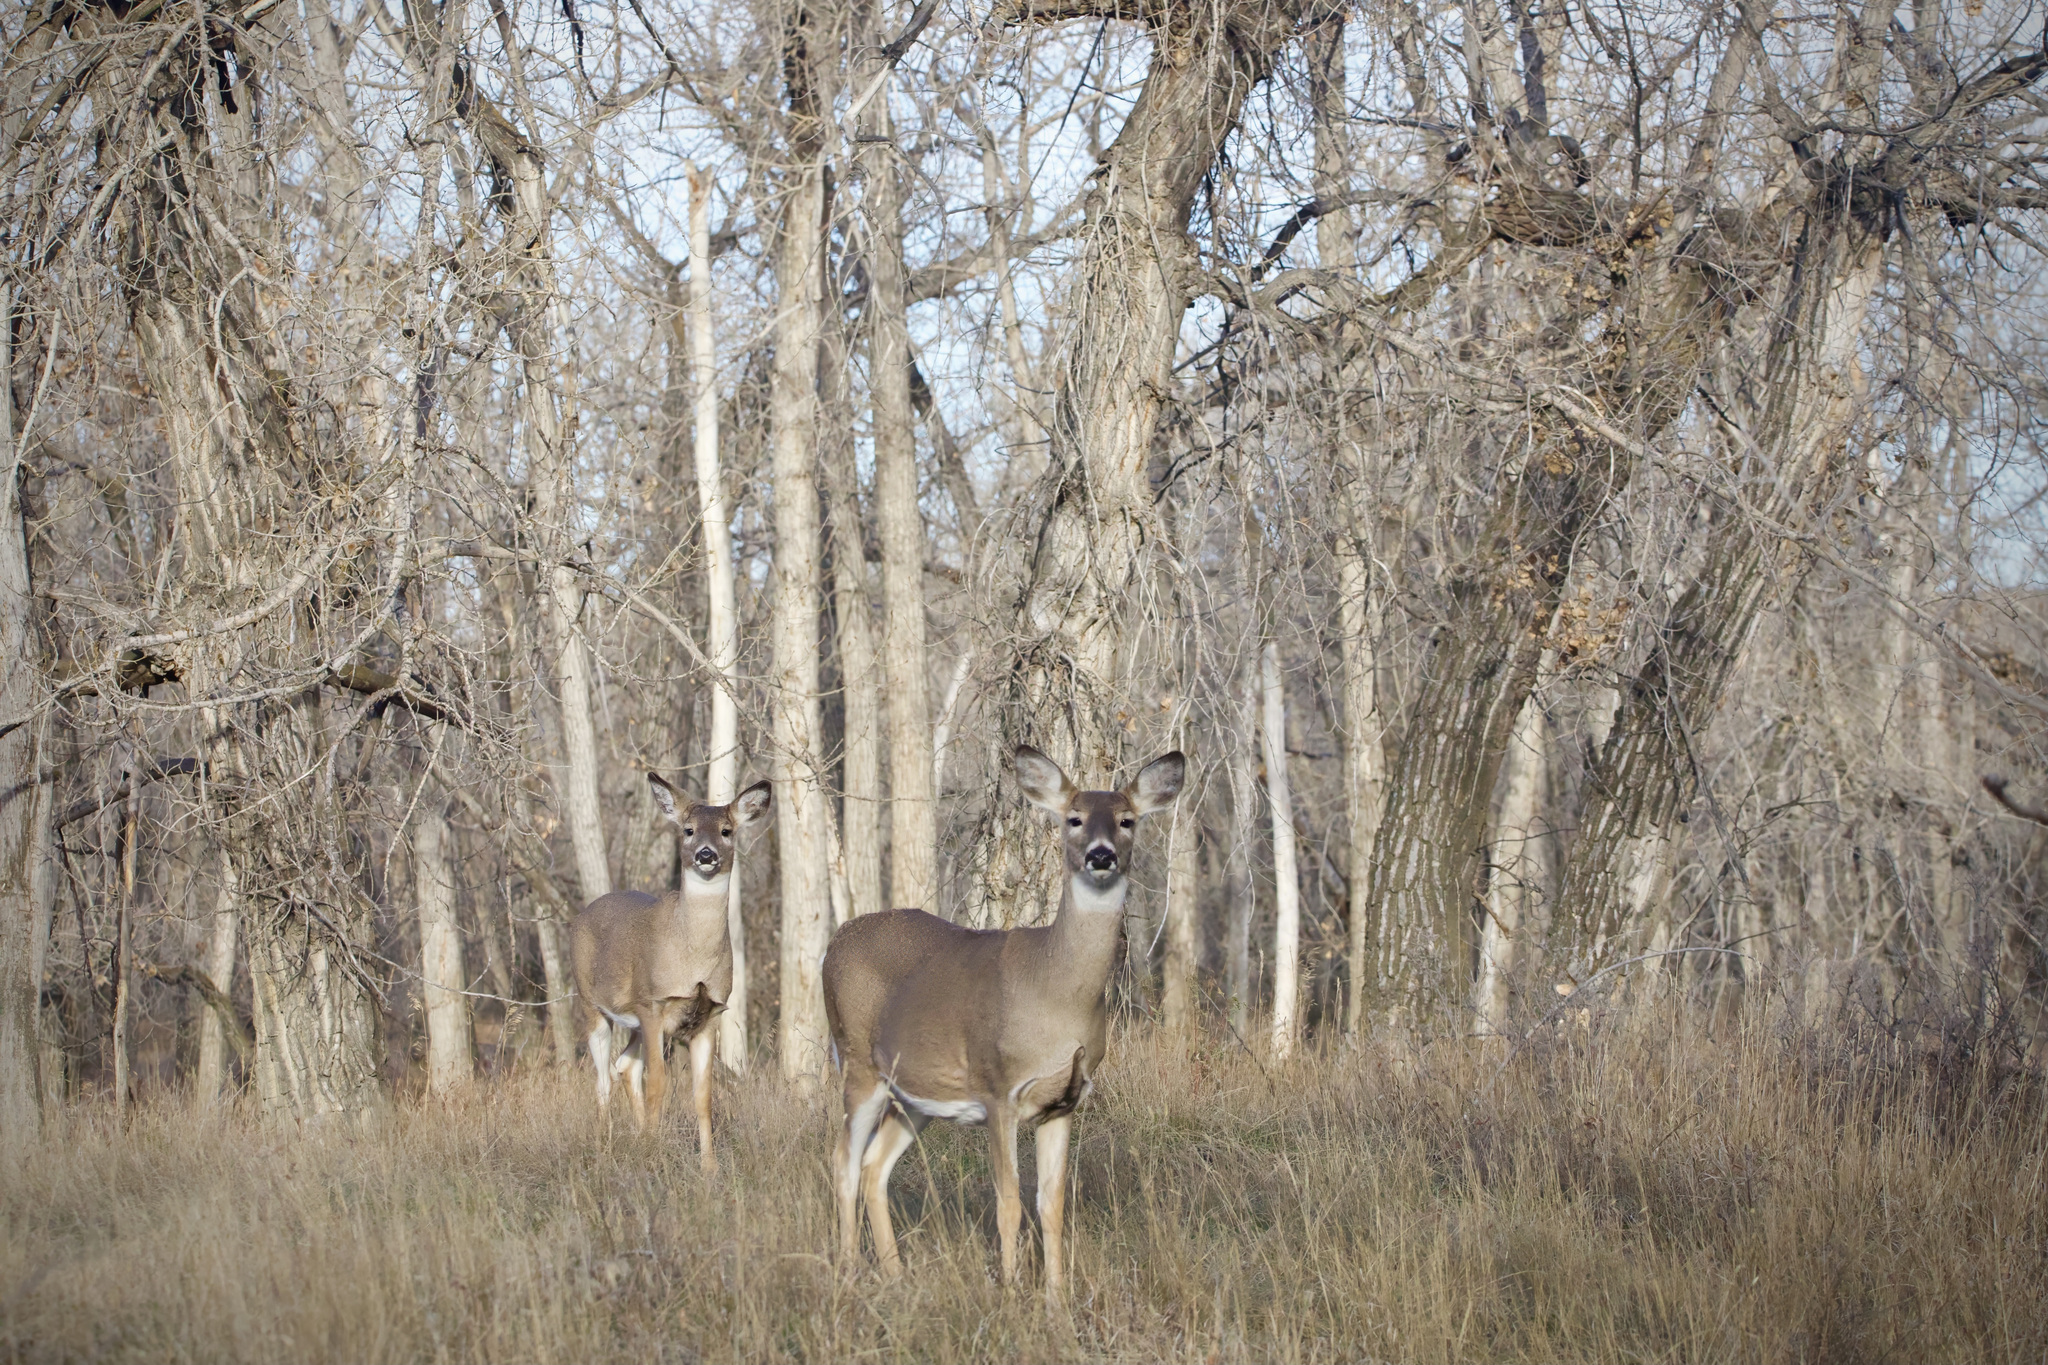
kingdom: Animalia
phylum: Chordata
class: Mammalia
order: Artiodactyla
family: Cervidae
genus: Odocoileus
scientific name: Odocoileus virginianus
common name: White-tailed deer
